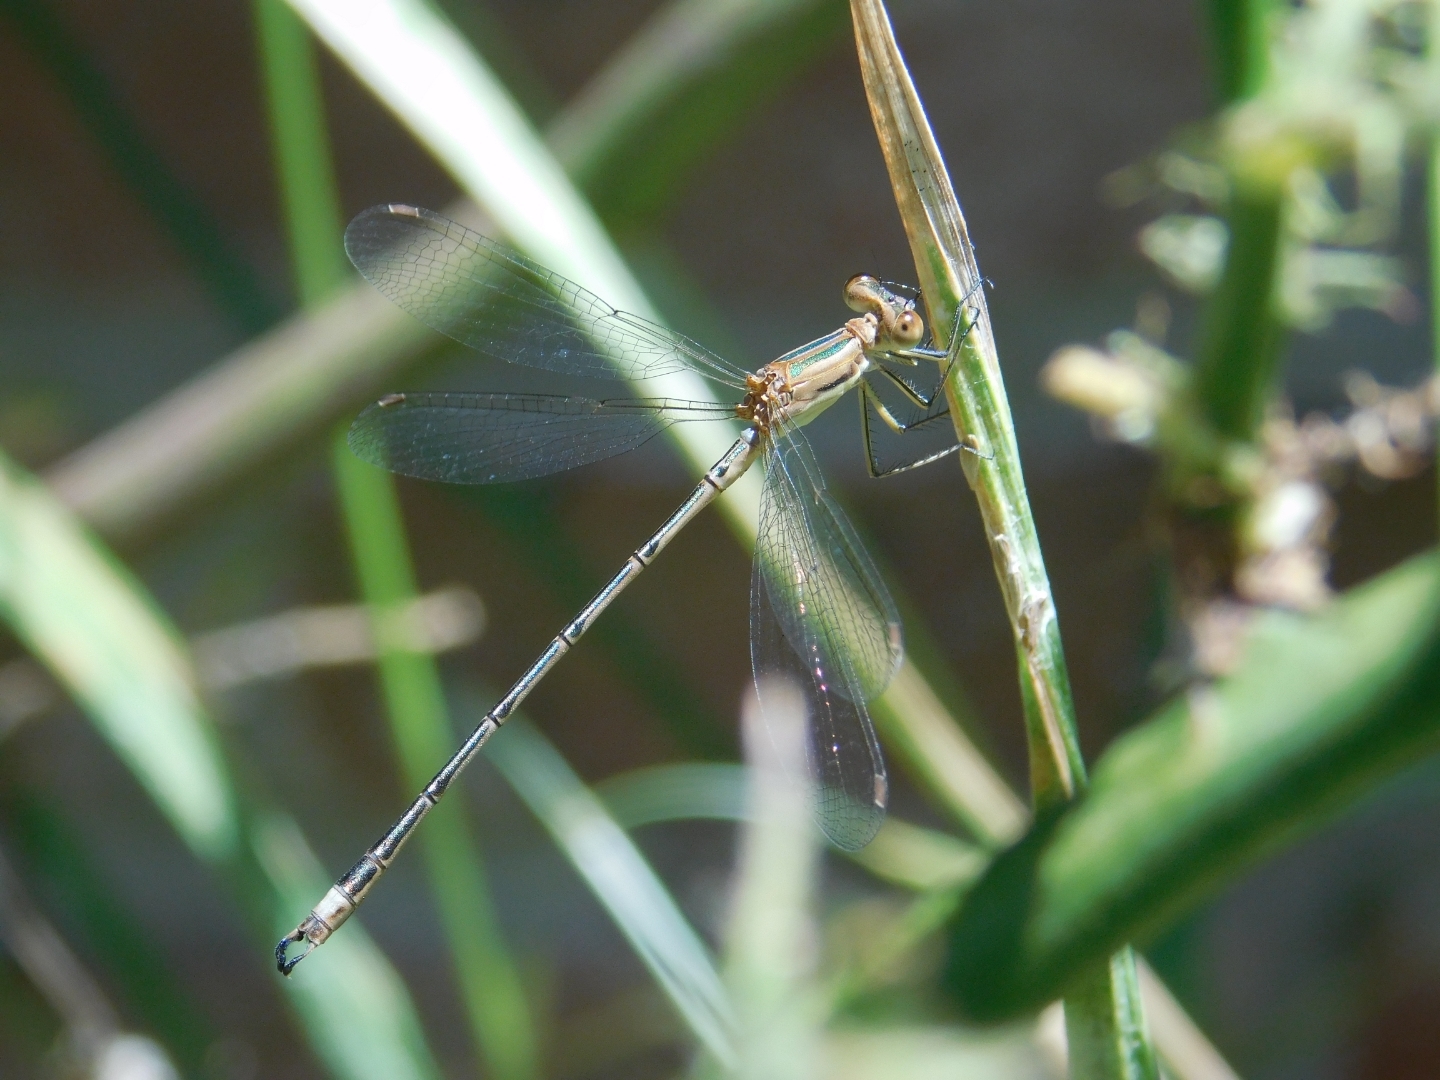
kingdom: Animalia
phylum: Arthropoda
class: Insecta
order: Odonata
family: Lestidae
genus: Lestes
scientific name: Lestes undulatus
